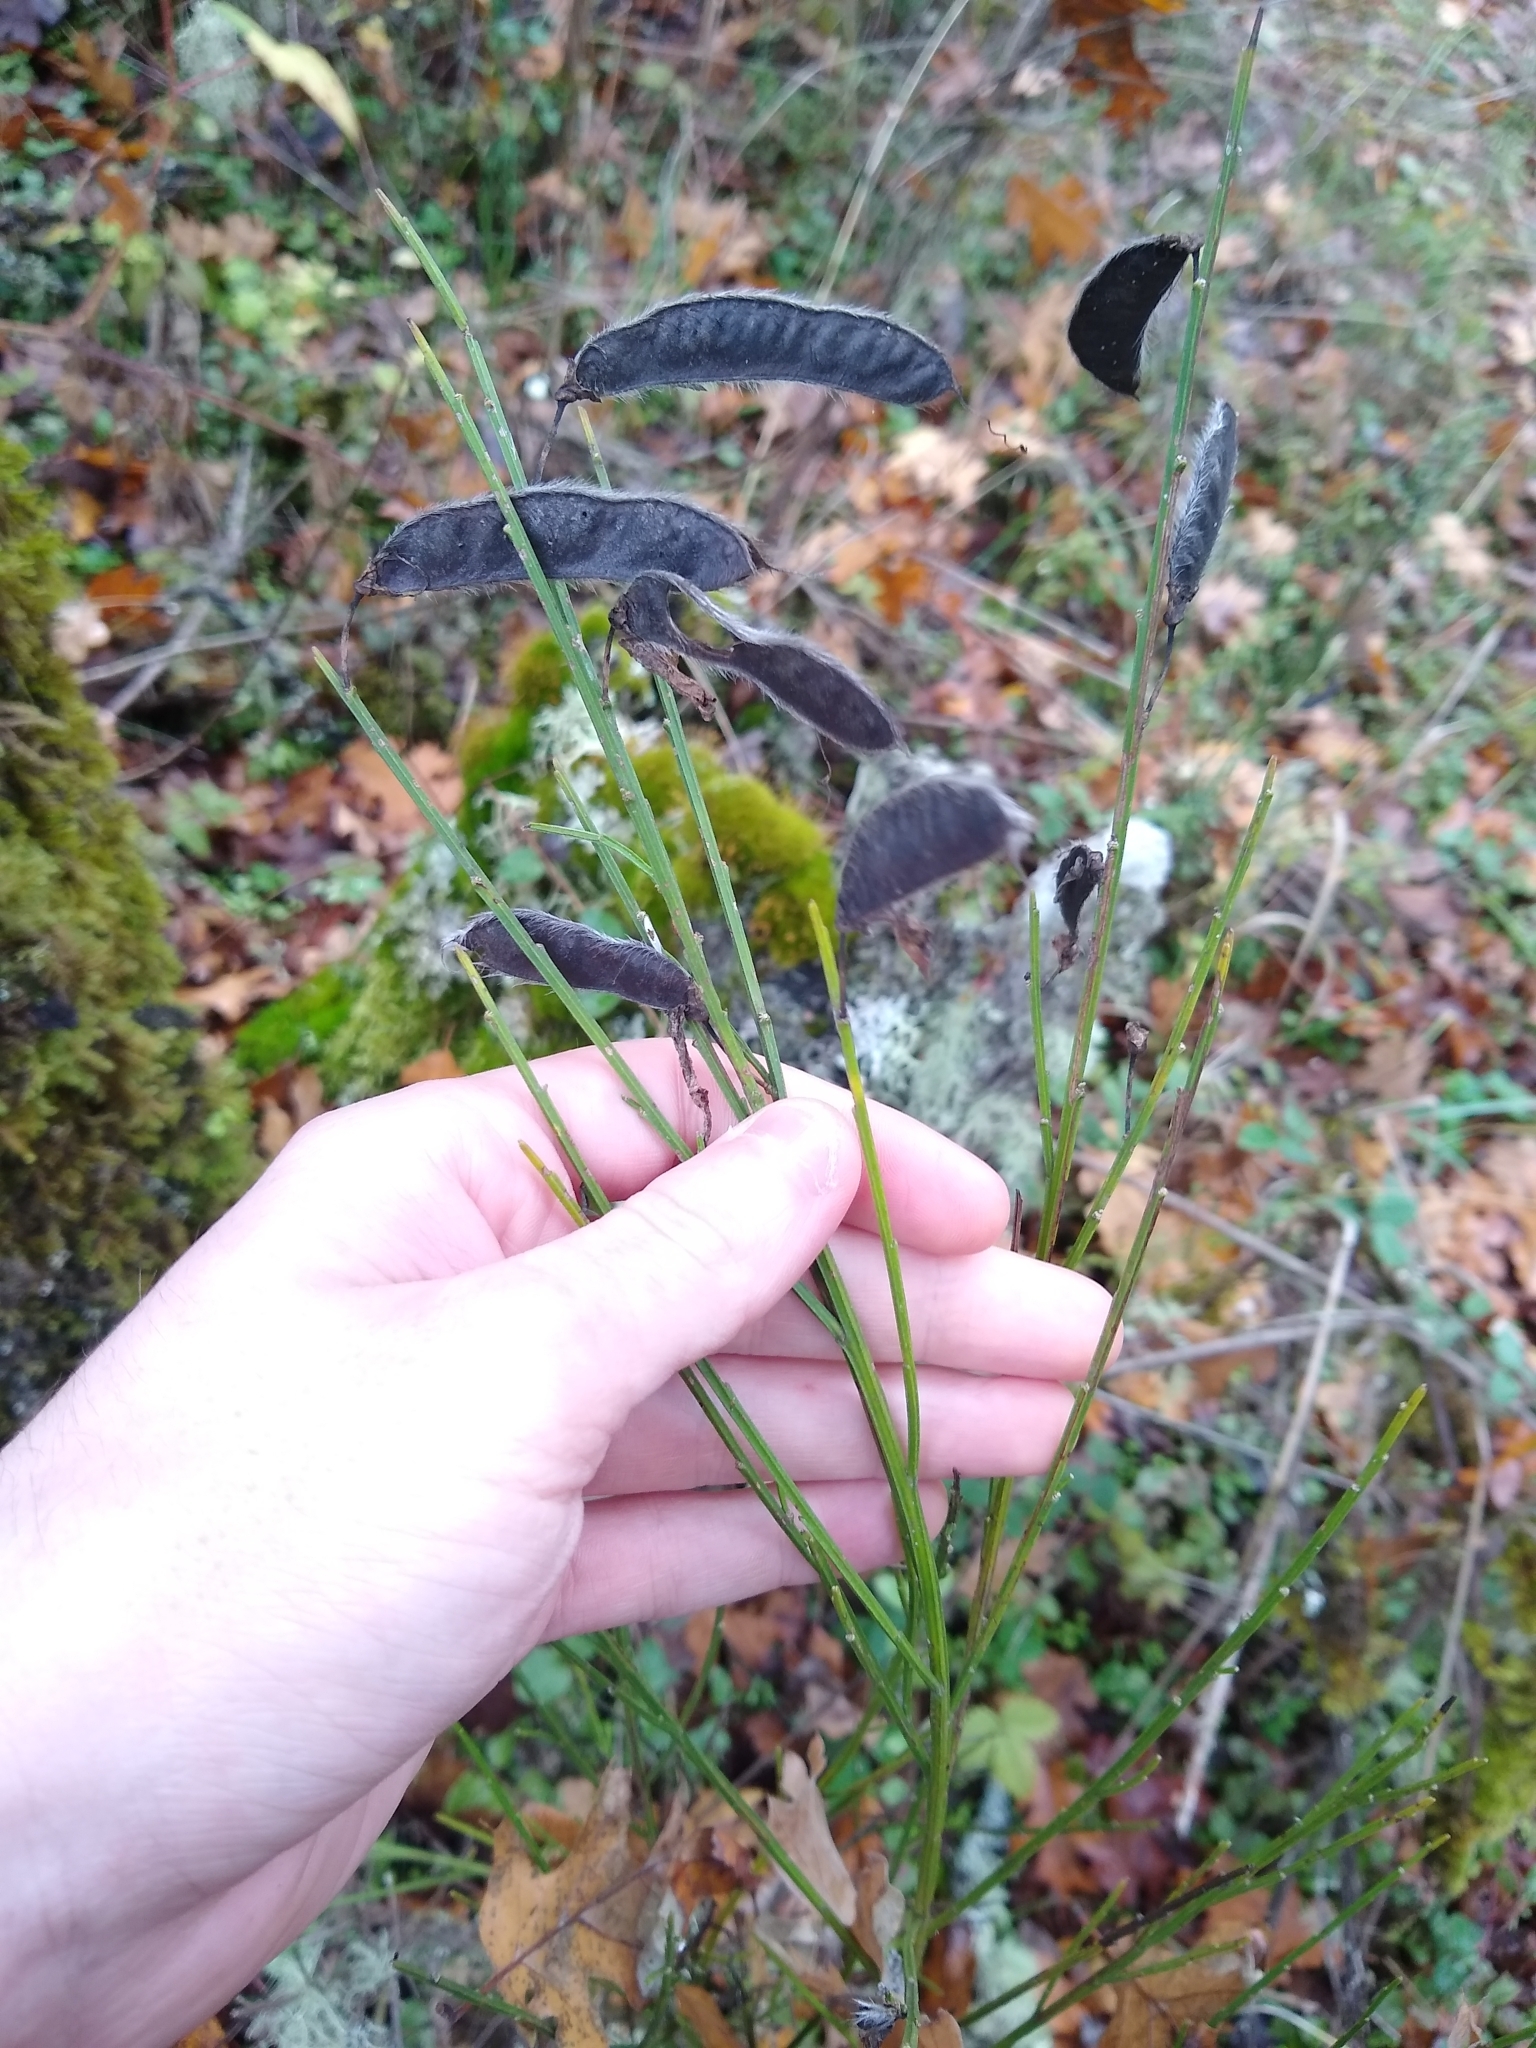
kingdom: Plantae
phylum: Tracheophyta
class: Magnoliopsida
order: Fabales
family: Fabaceae
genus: Cytisus
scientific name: Cytisus scoparius
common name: Scotch broom
